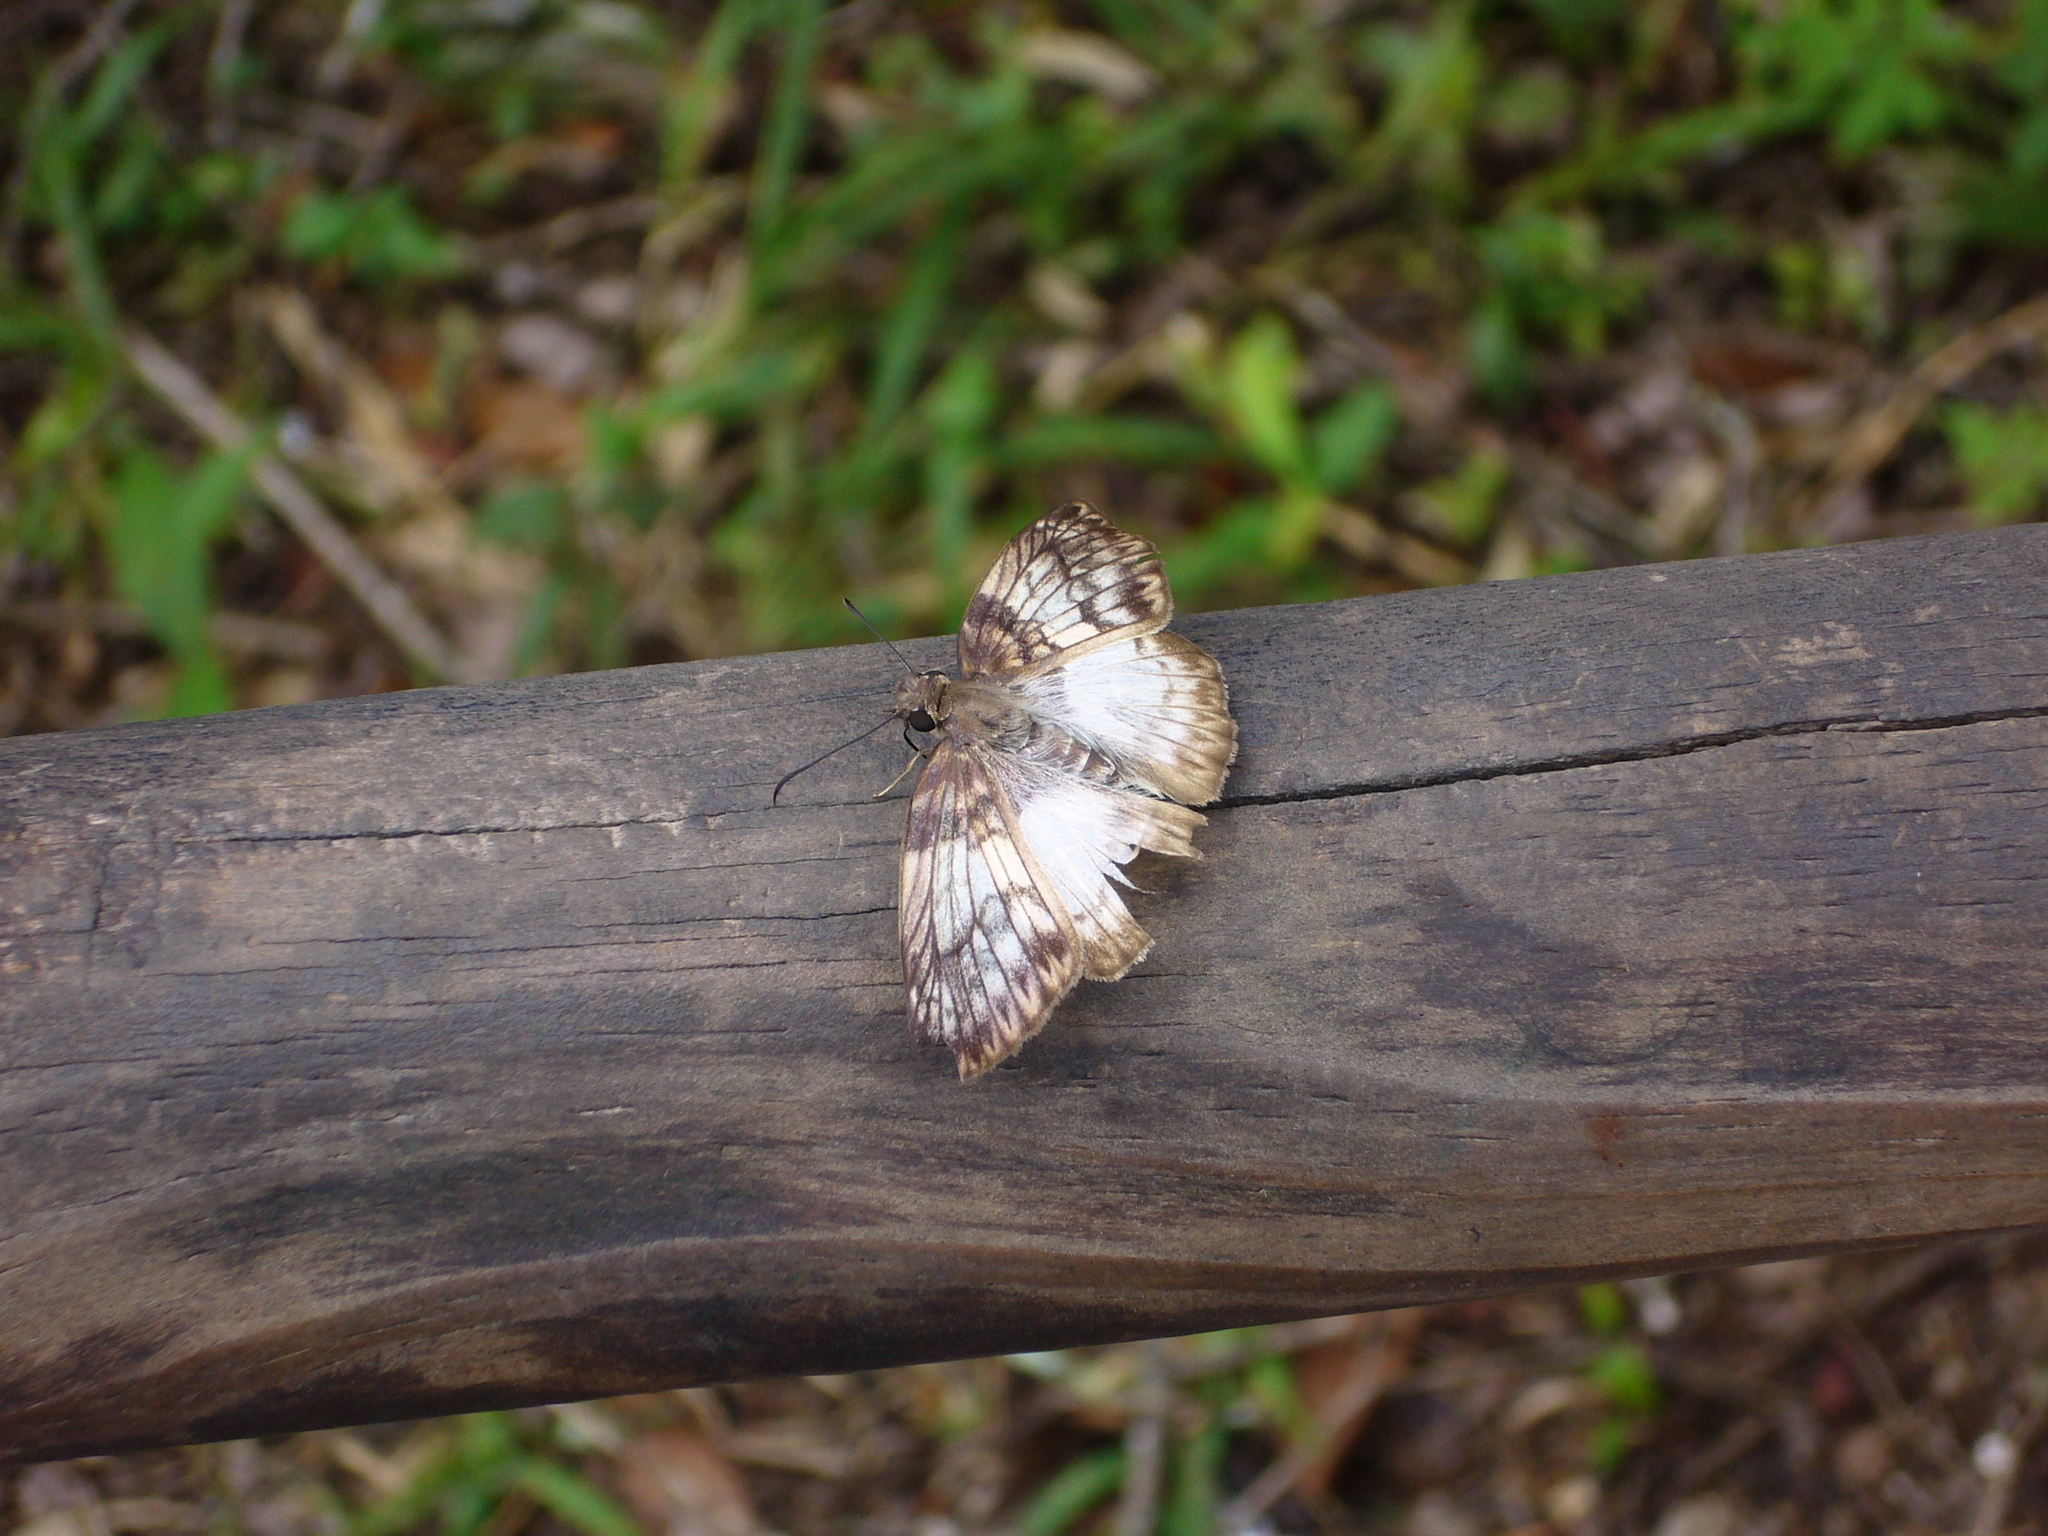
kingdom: Animalia
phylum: Arthropoda
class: Insecta
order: Lepidoptera
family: Hesperiidae
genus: Mylon
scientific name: Mylon maimon
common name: Common mylon
